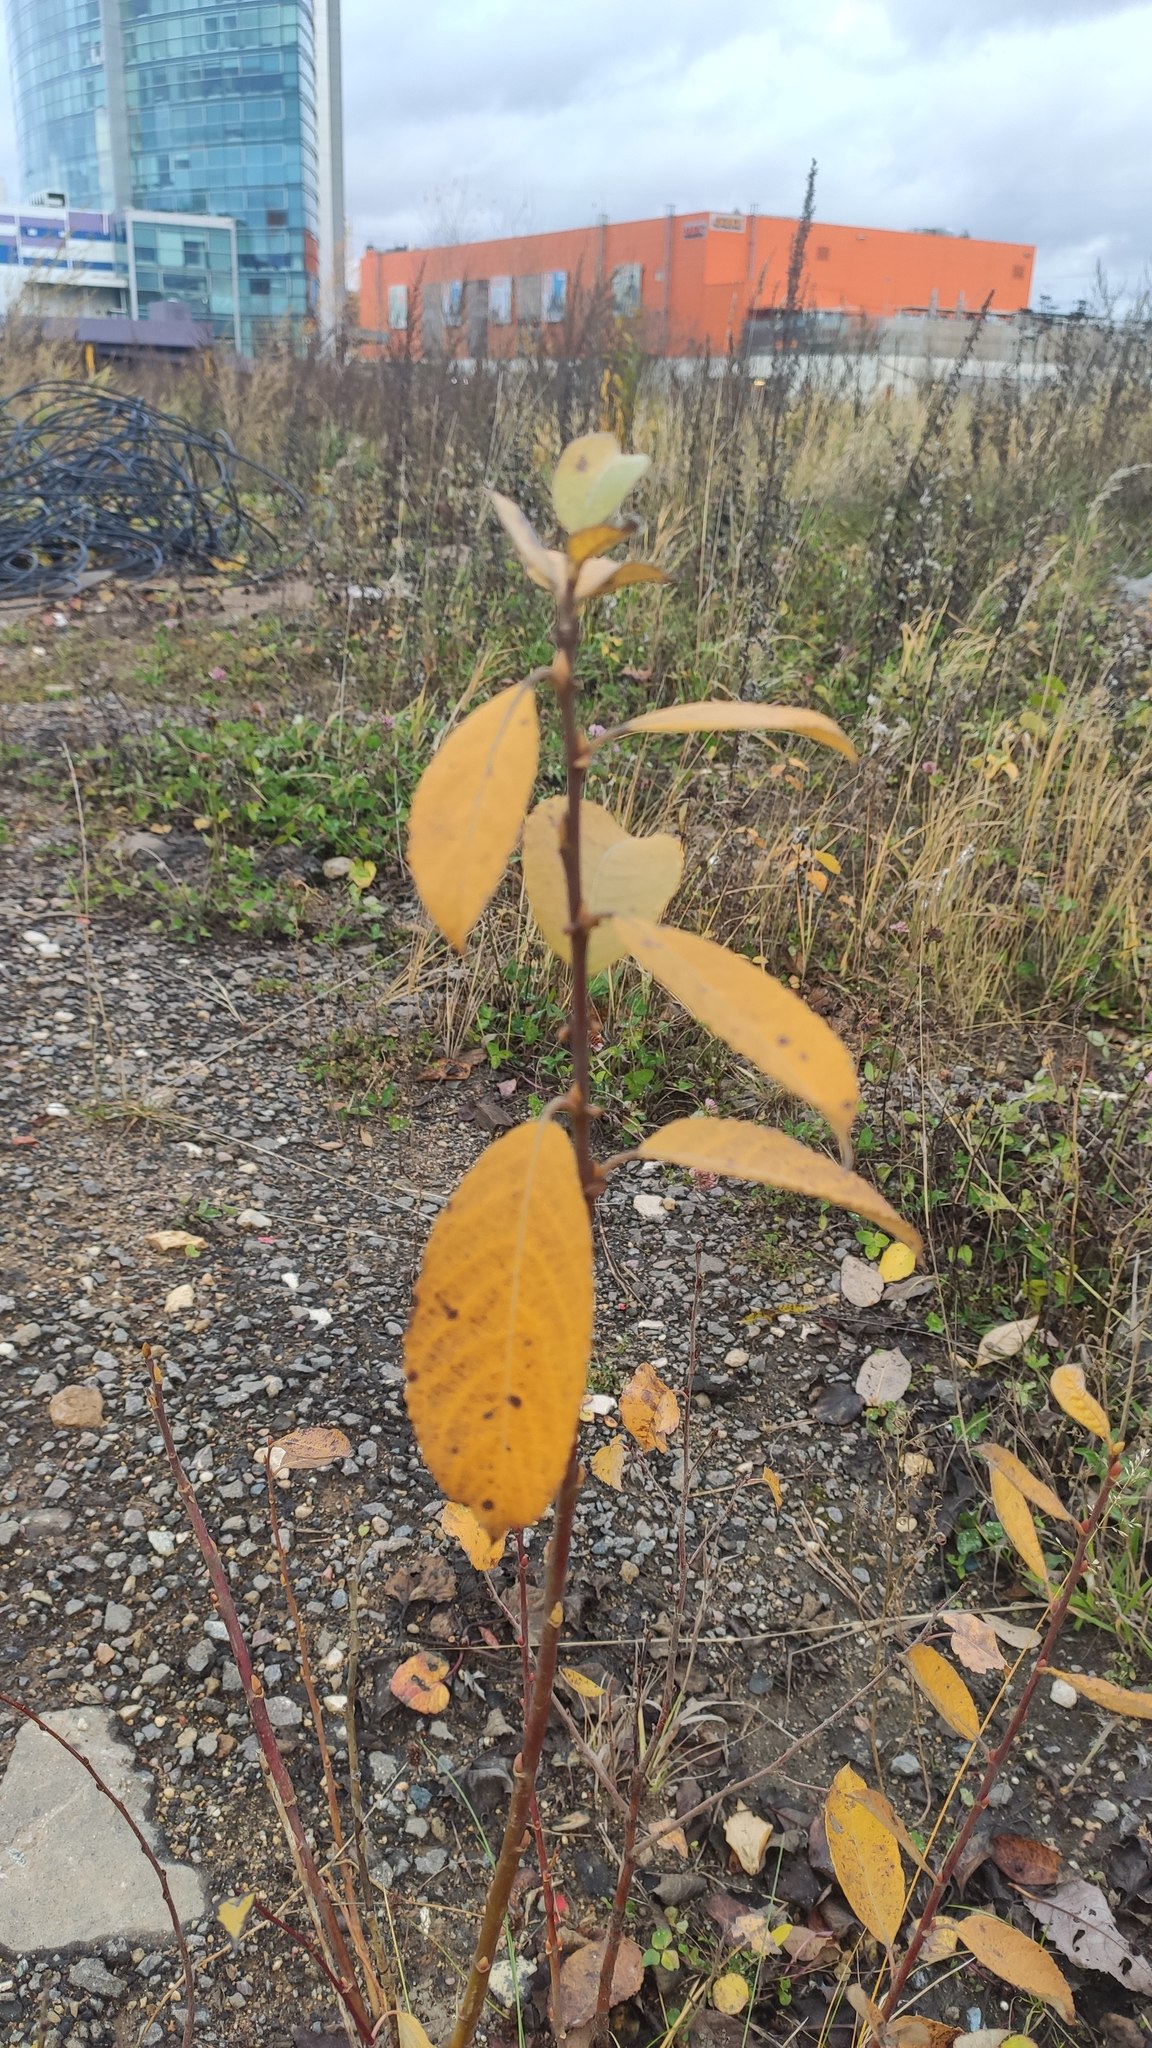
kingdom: Plantae
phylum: Tracheophyta
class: Magnoliopsida
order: Malpighiales
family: Salicaceae
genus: Salix
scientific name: Salix caprea
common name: Goat willow
